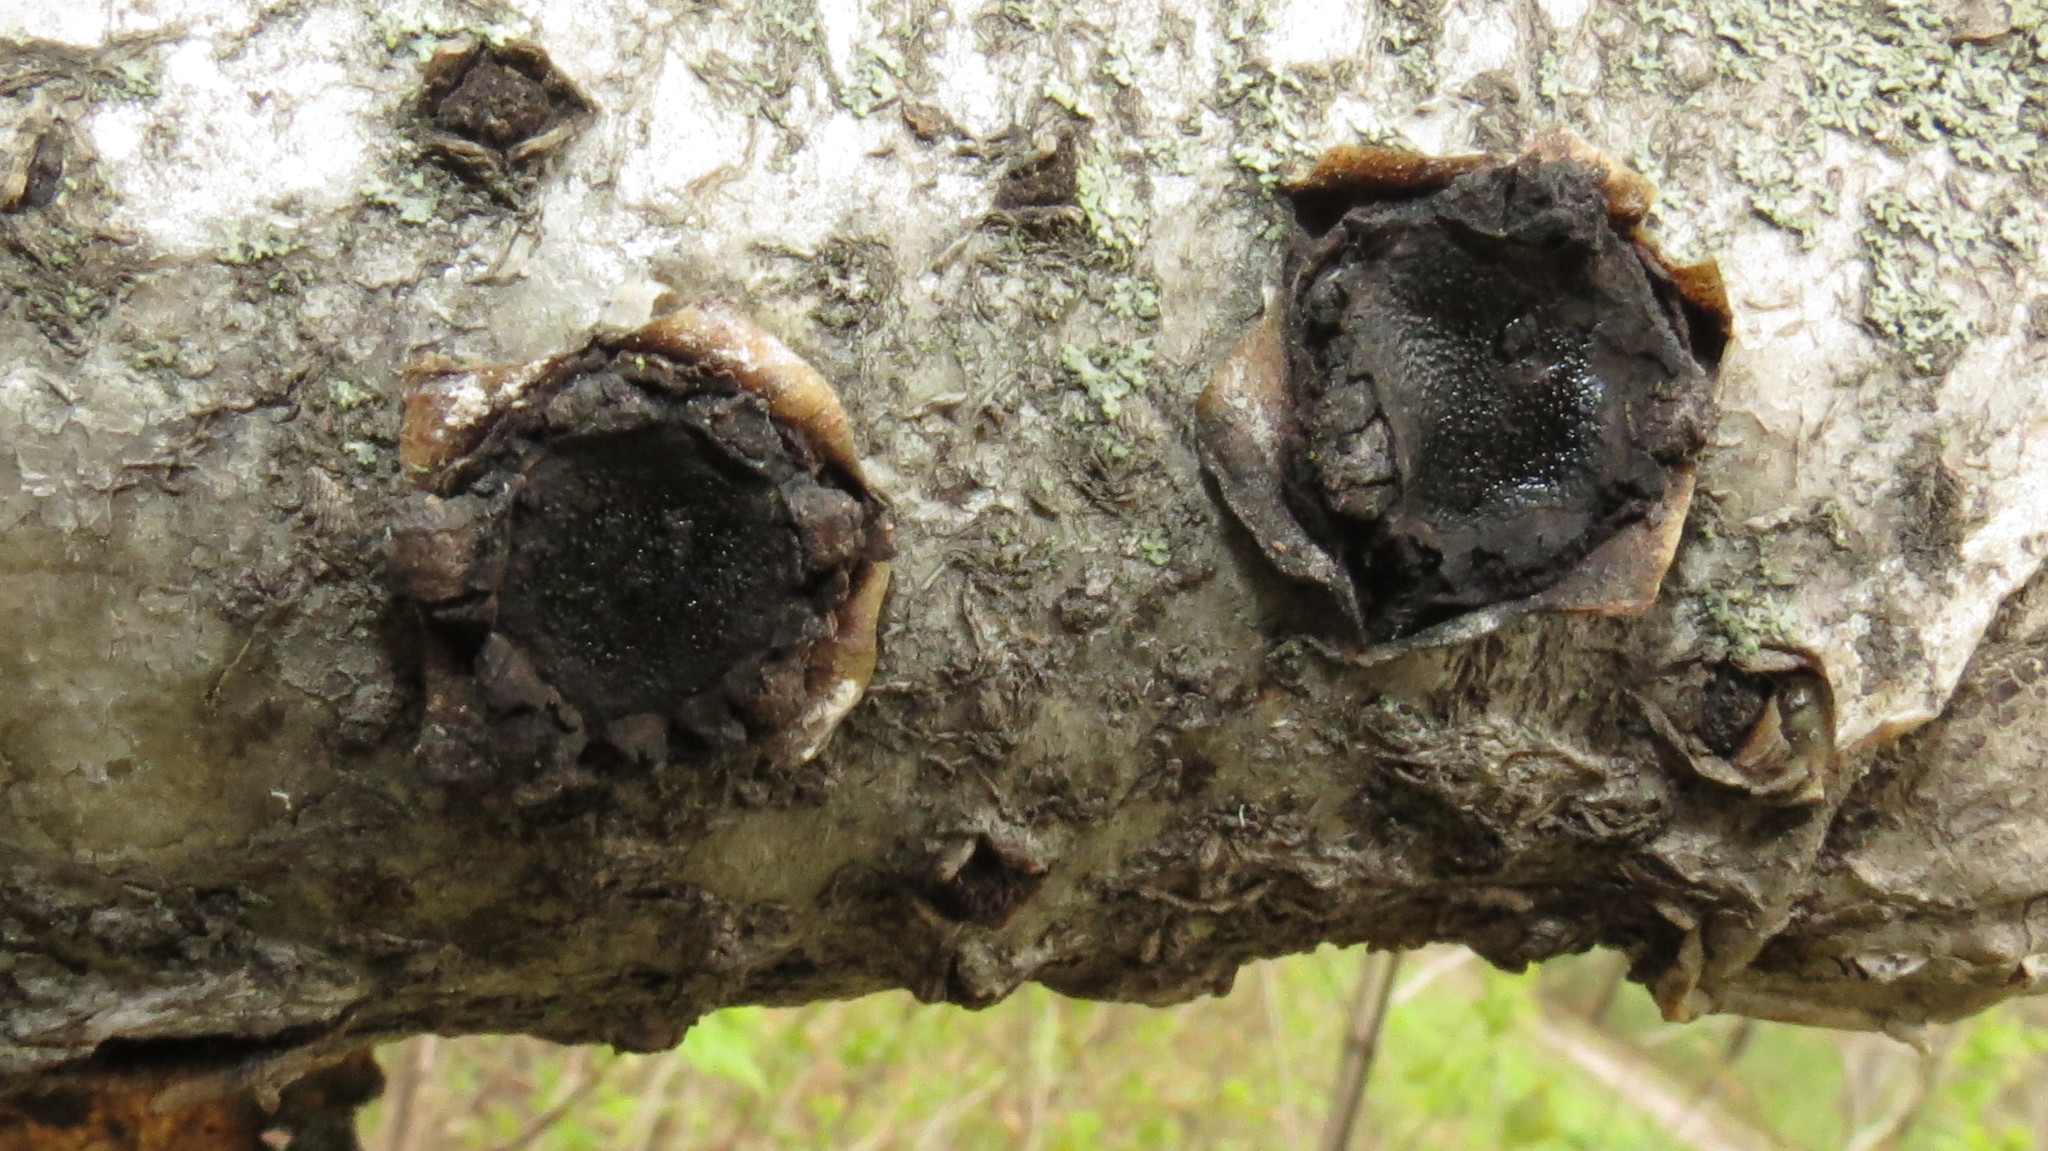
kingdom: Fungi
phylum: Ascomycota
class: Sordariomycetes
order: Xylariales
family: Graphostromataceae
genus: Biscogniauxia
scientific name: Biscogniauxia repanda
